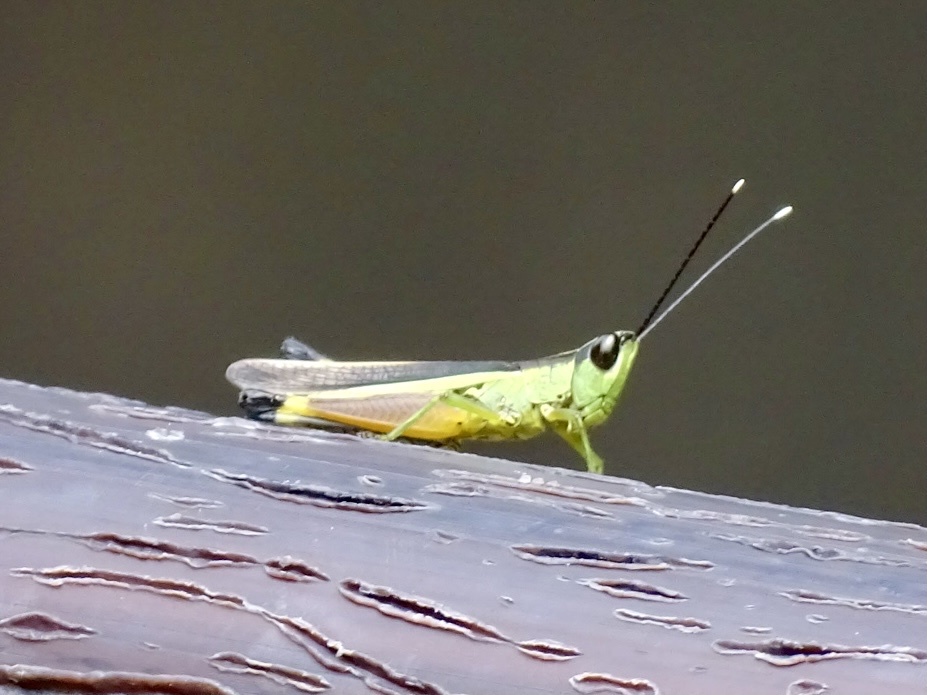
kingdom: Animalia
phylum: Arthropoda
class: Insecta
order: Orthoptera
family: Acrididae
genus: Ceracris
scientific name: Ceracris fasciata
